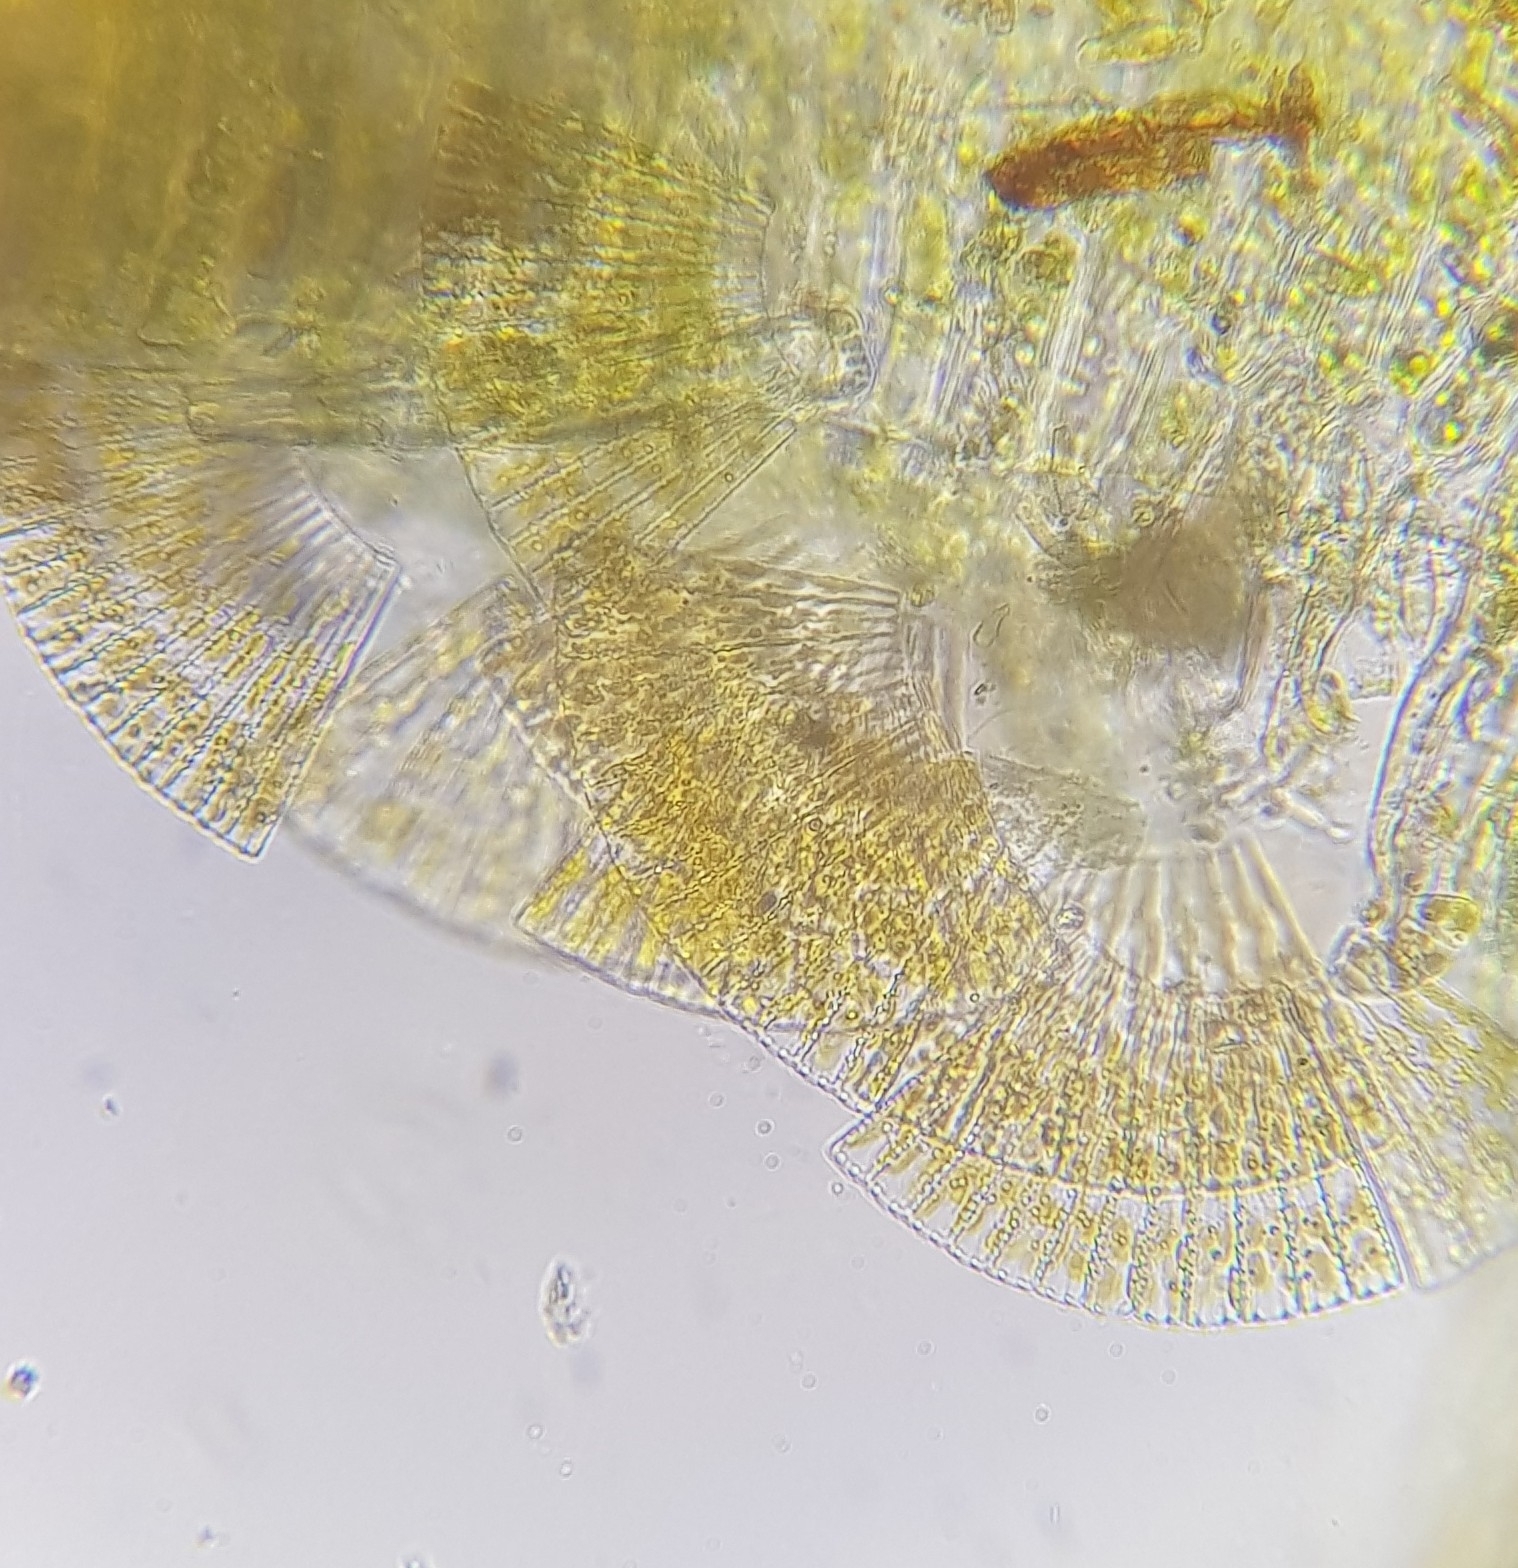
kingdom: Plantae
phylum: Bryophyta
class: Bryopsida
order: Hypnales
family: Brachytheciaceae
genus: Rhynchostegium
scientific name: Rhynchostegium riparioides
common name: Platyhypnidium moss
